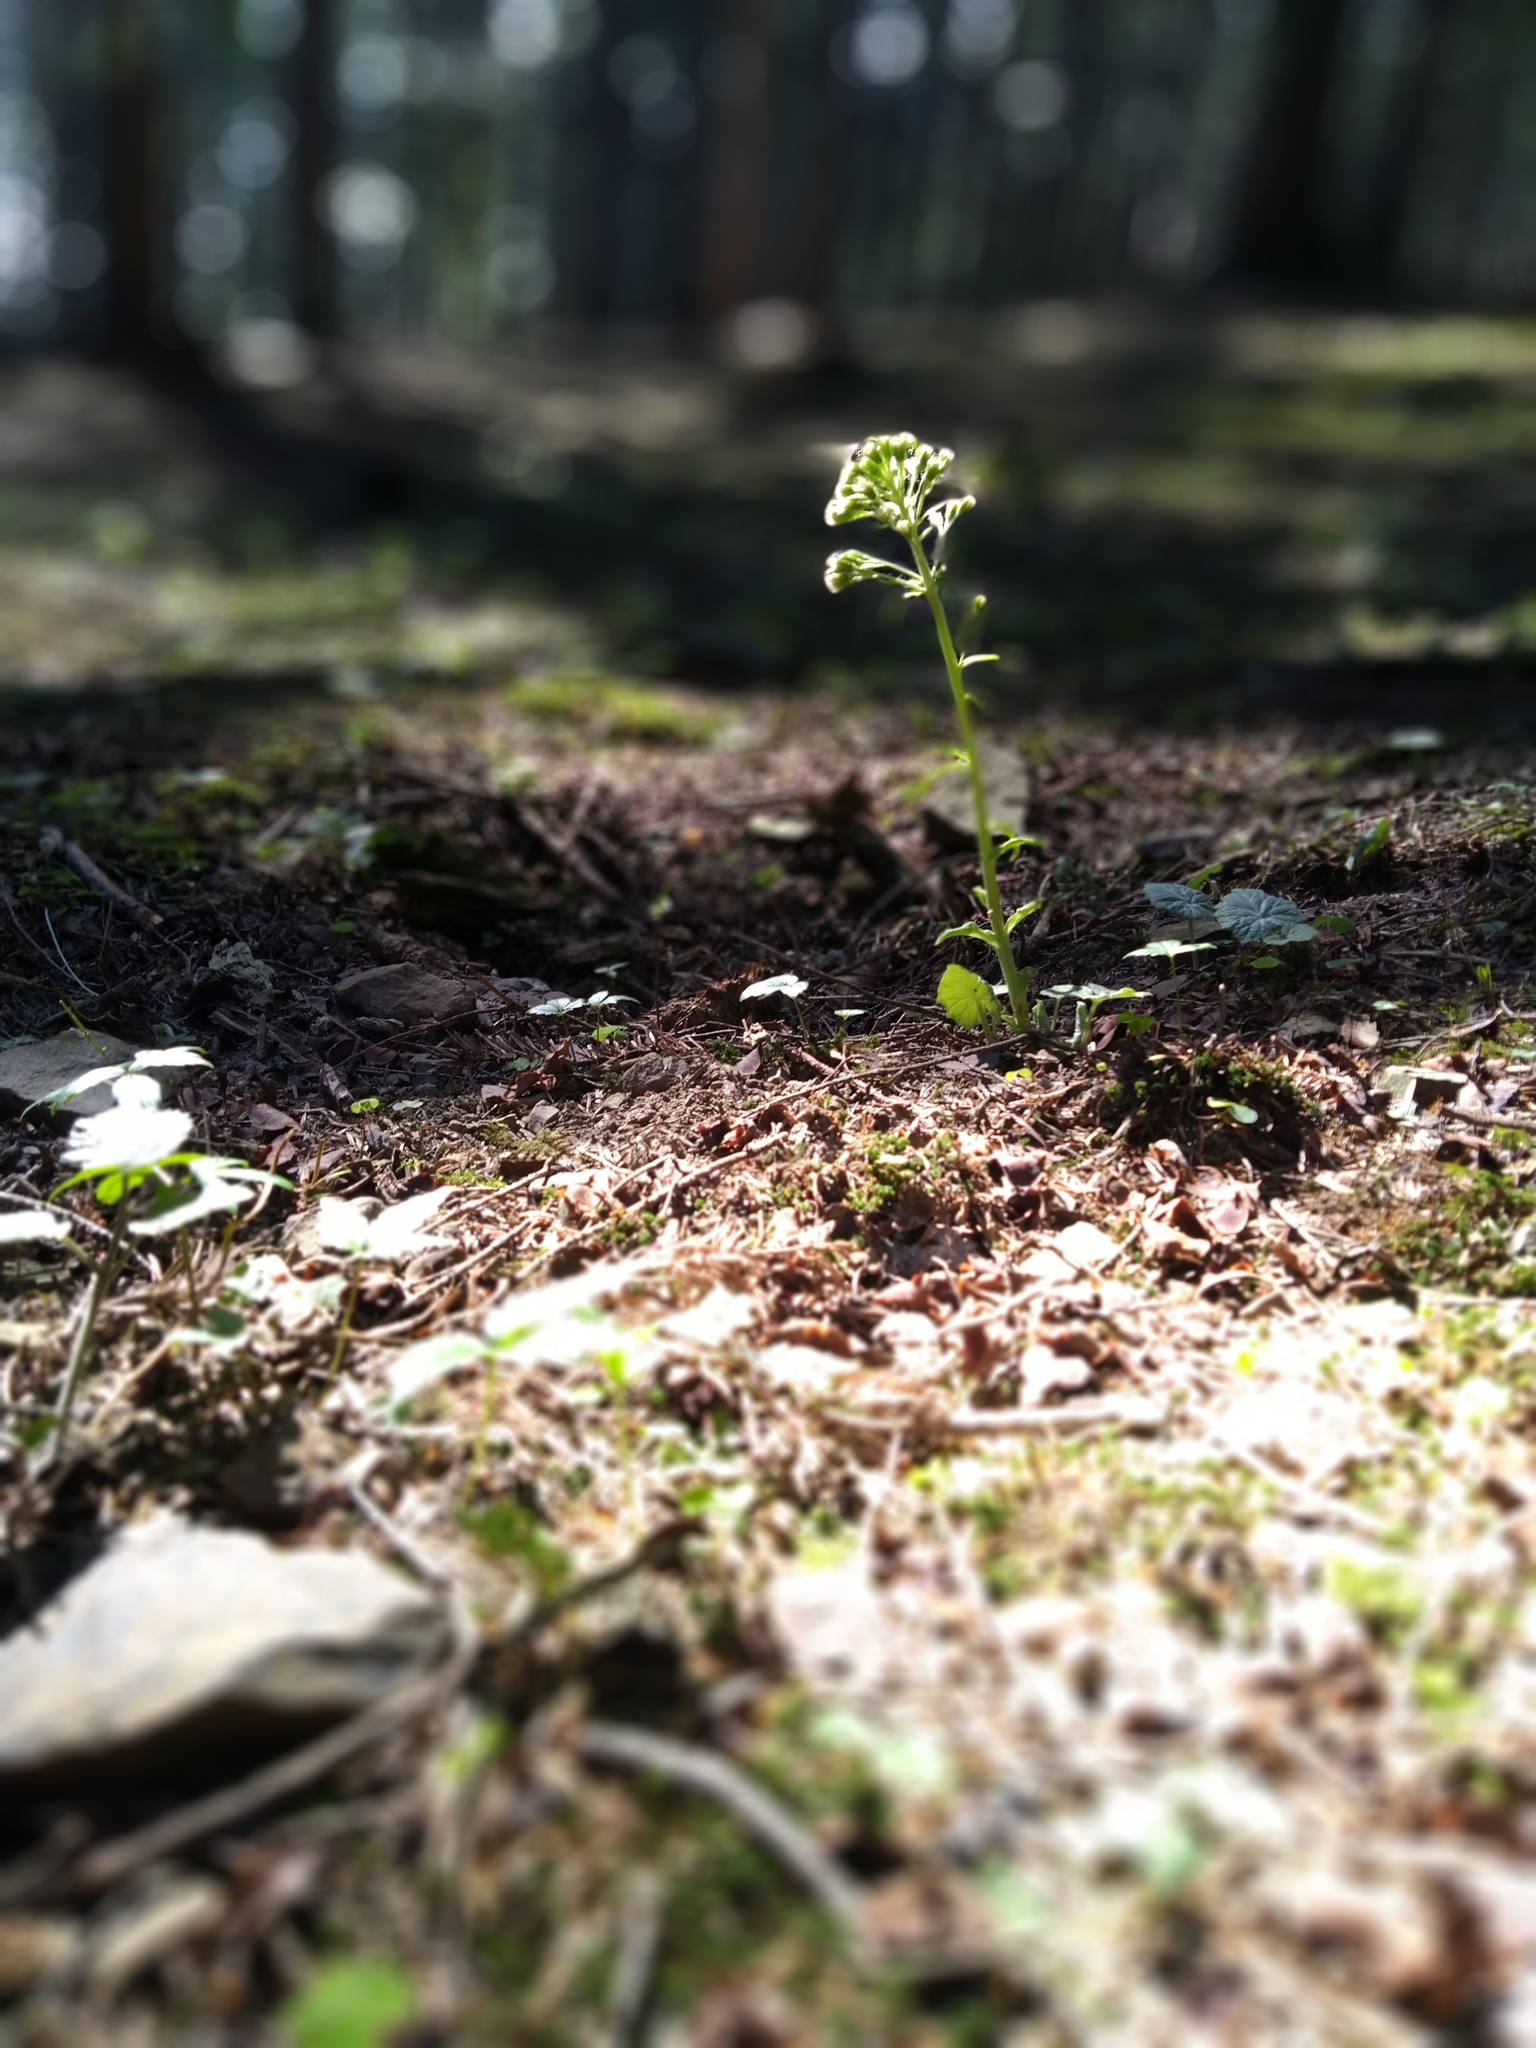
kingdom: Plantae
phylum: Tracheophyta
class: Magnoliopsida
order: Asterales
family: Asteraceae
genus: Petasites
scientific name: Petasites albus
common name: White butterbur
